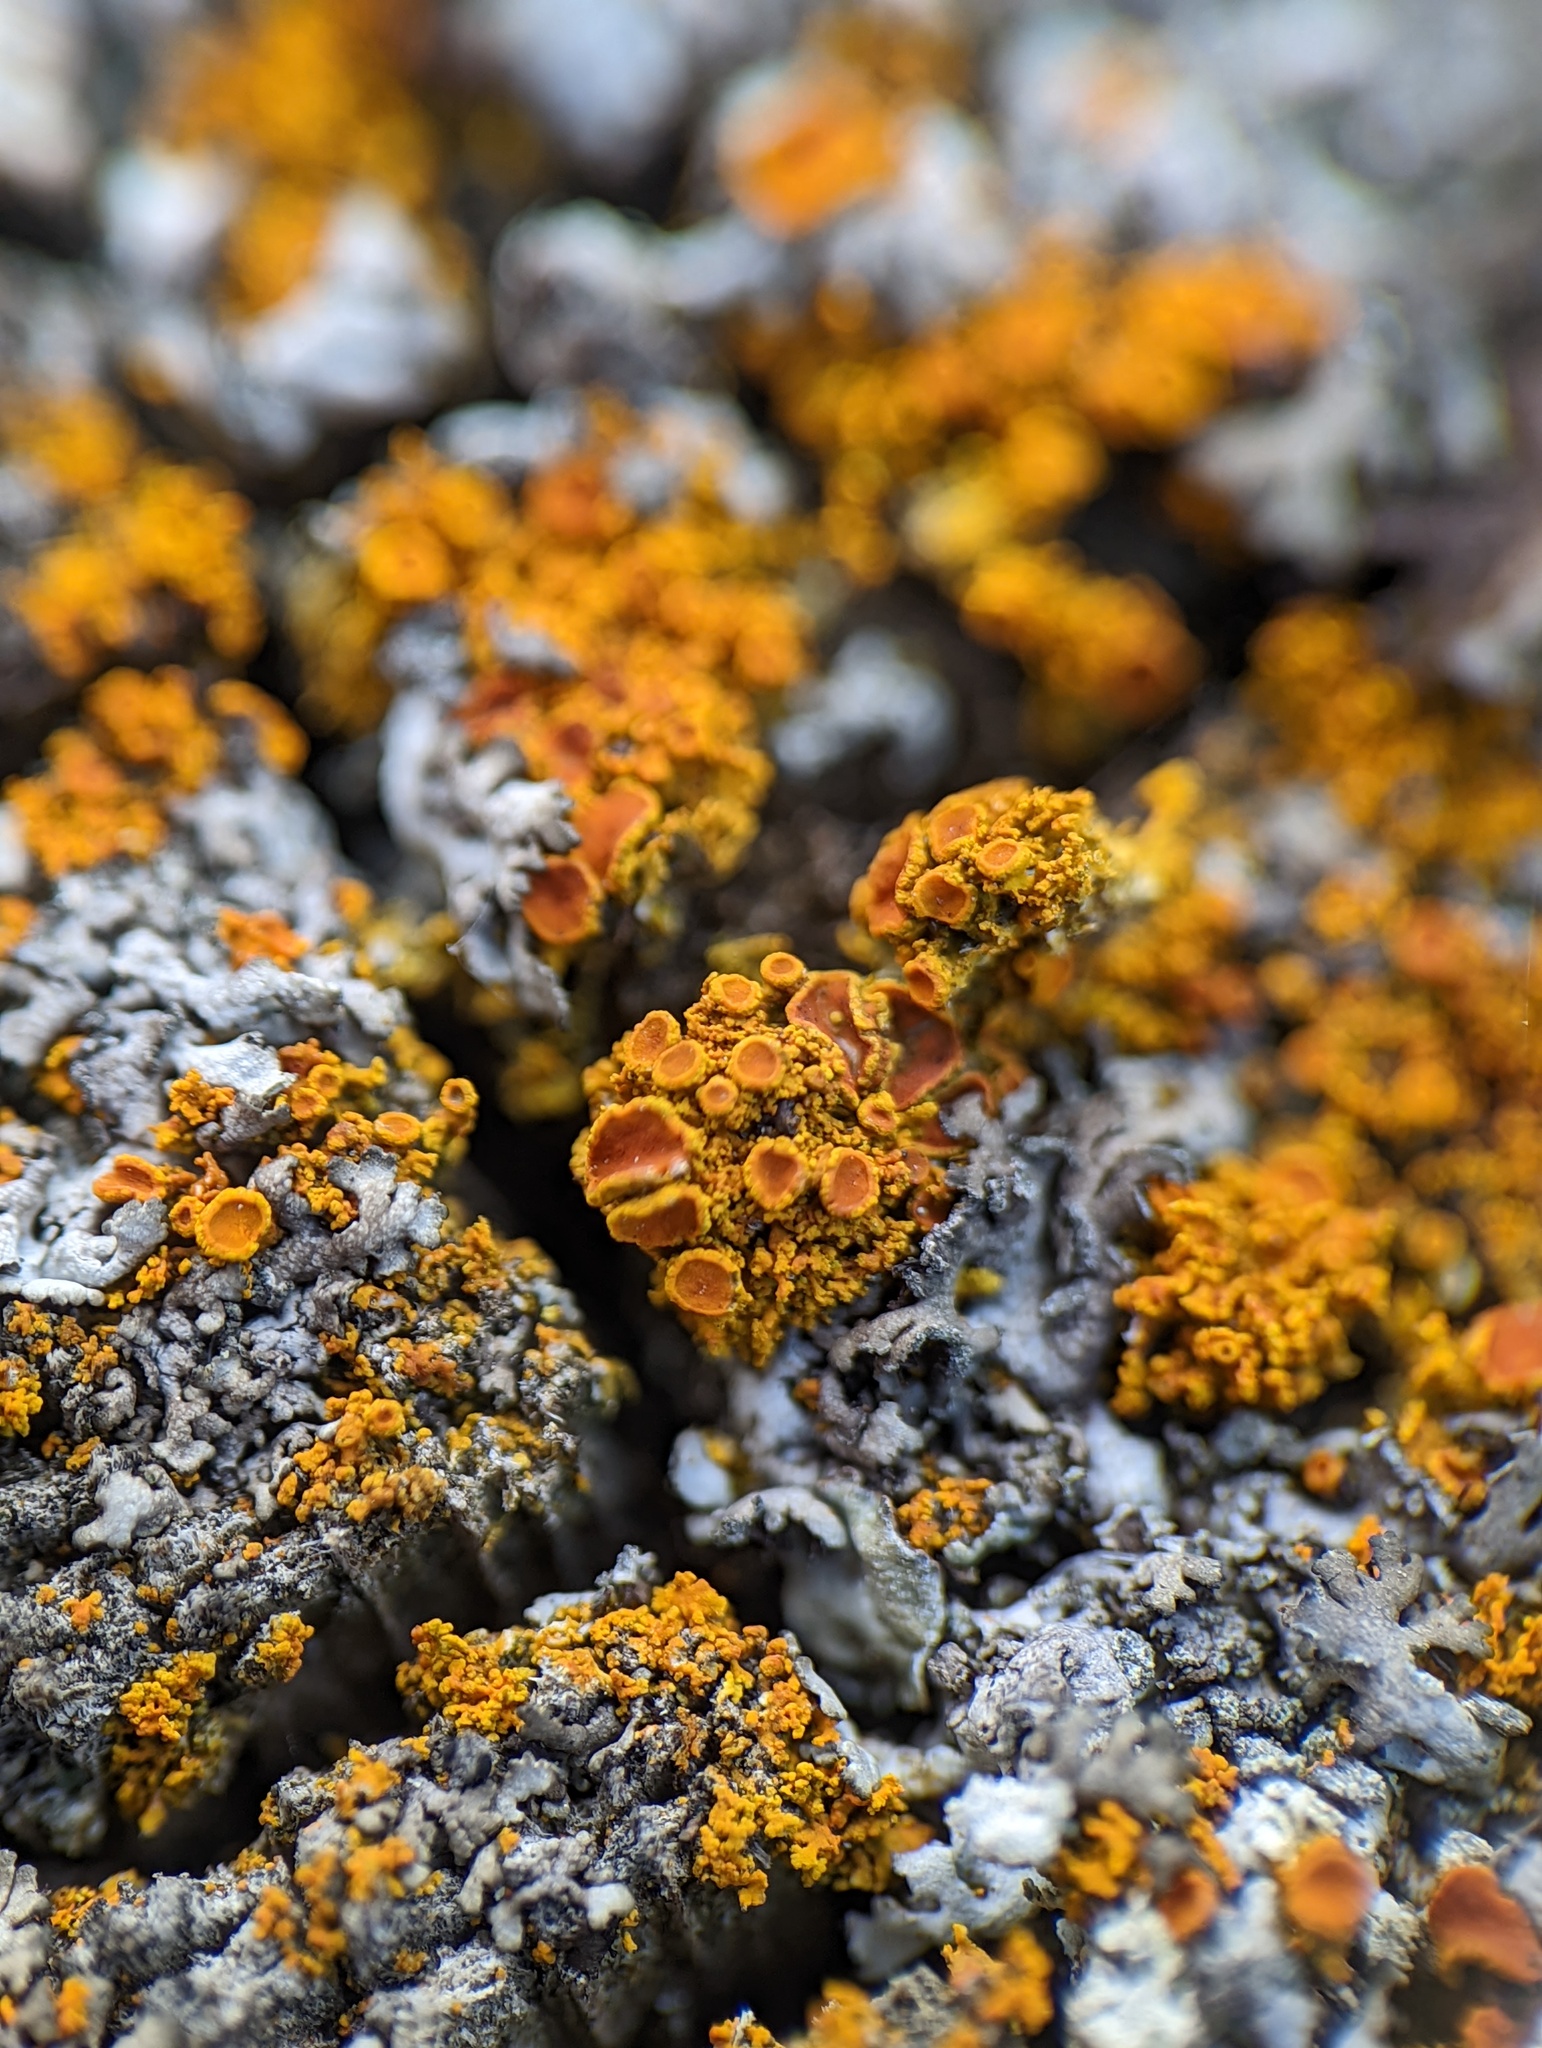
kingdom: Fungi
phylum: Ascomycota
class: Lecanoromycetes
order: Teloschistales
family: Teloschistaceae
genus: Polycauliona
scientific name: Polycauliona candelaria
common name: Shrubby sunburst lichen
